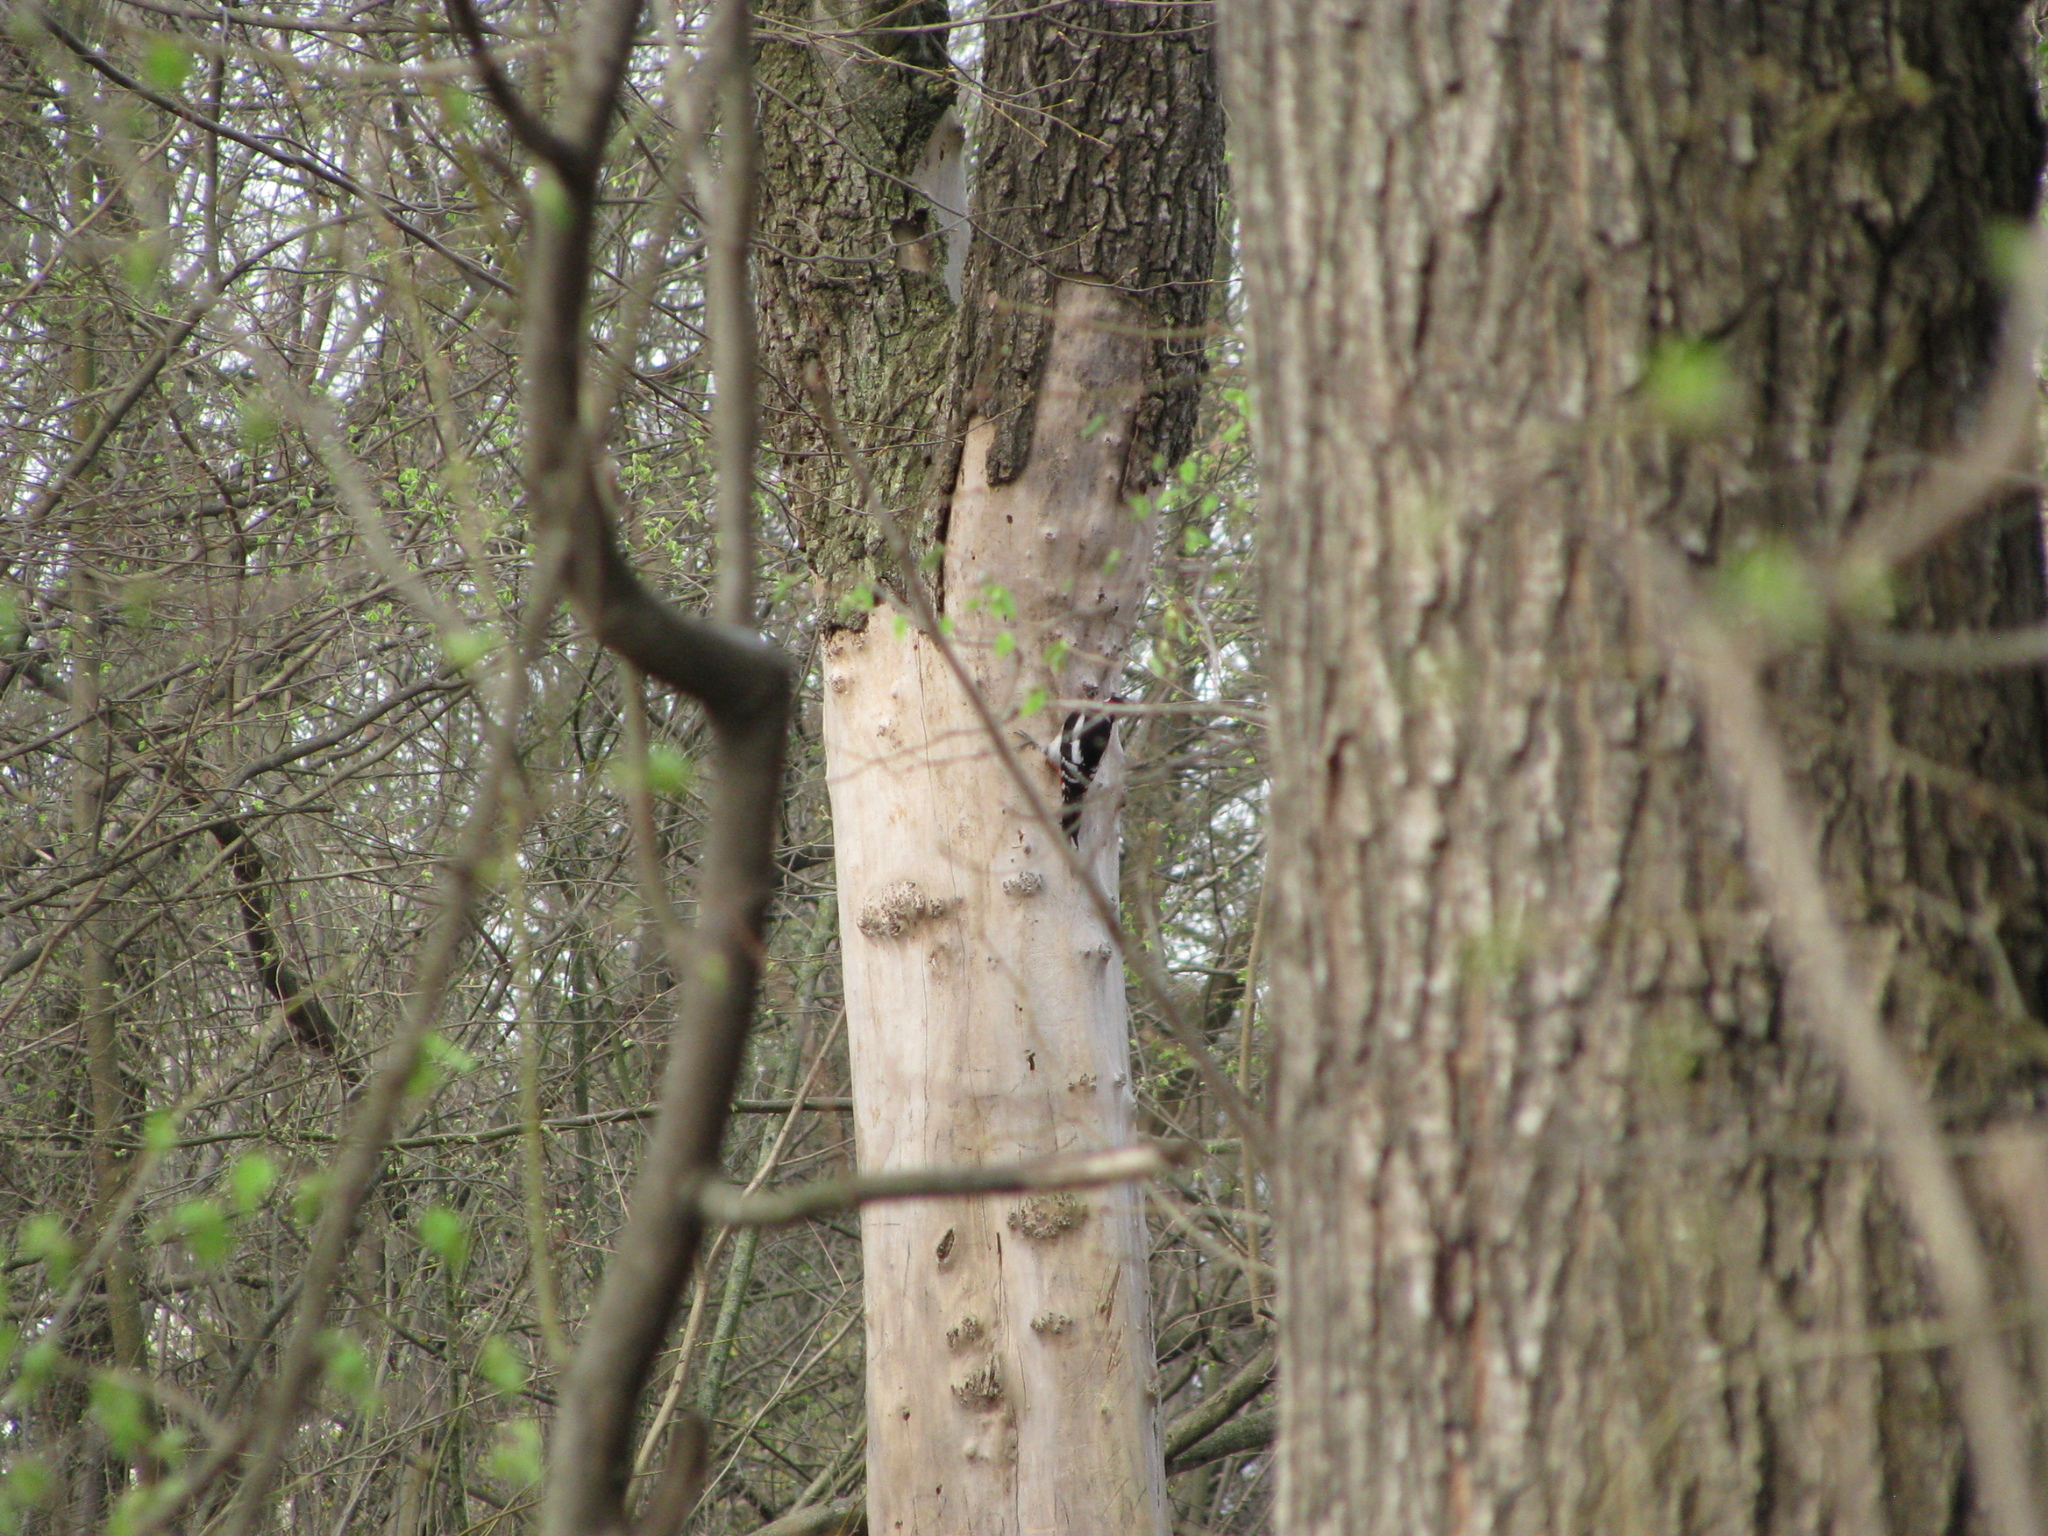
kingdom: Animalia
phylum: Chordata
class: Aves
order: Piciformes
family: Picidae
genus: Dendrocopos
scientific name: Dendrocopos major
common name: Great spotted woodpecker
